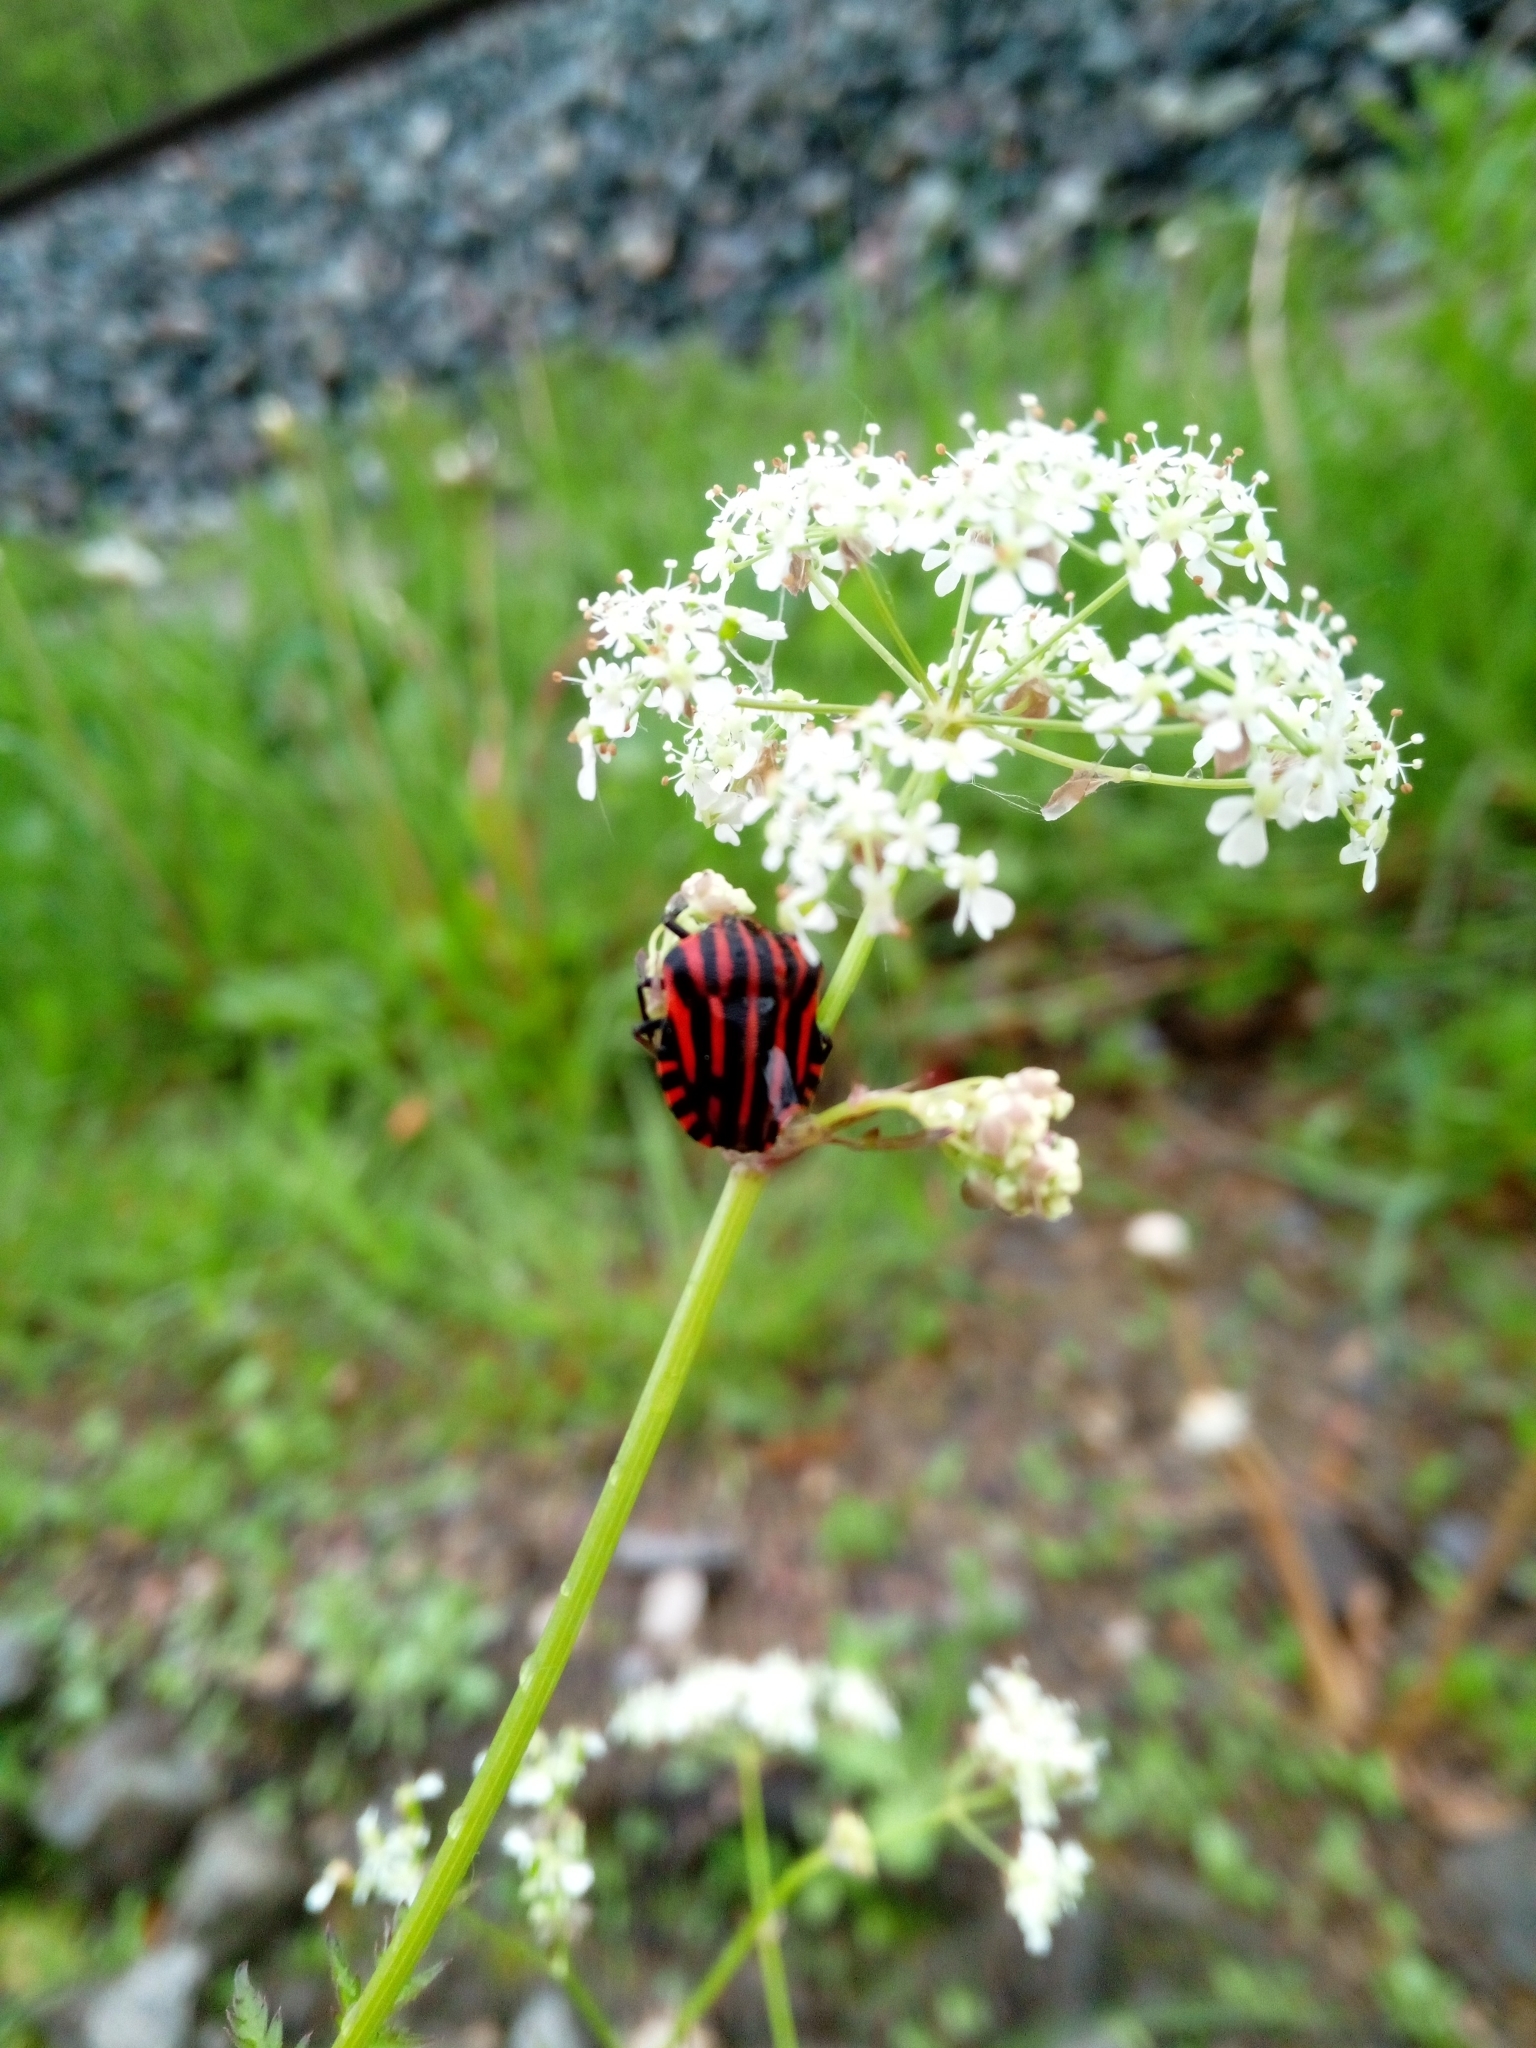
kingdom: Animalia
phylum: Arthropoda
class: Insecta
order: Hemiptera
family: Pentatomidae
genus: Graphosoma
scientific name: Graphosoma italicum
